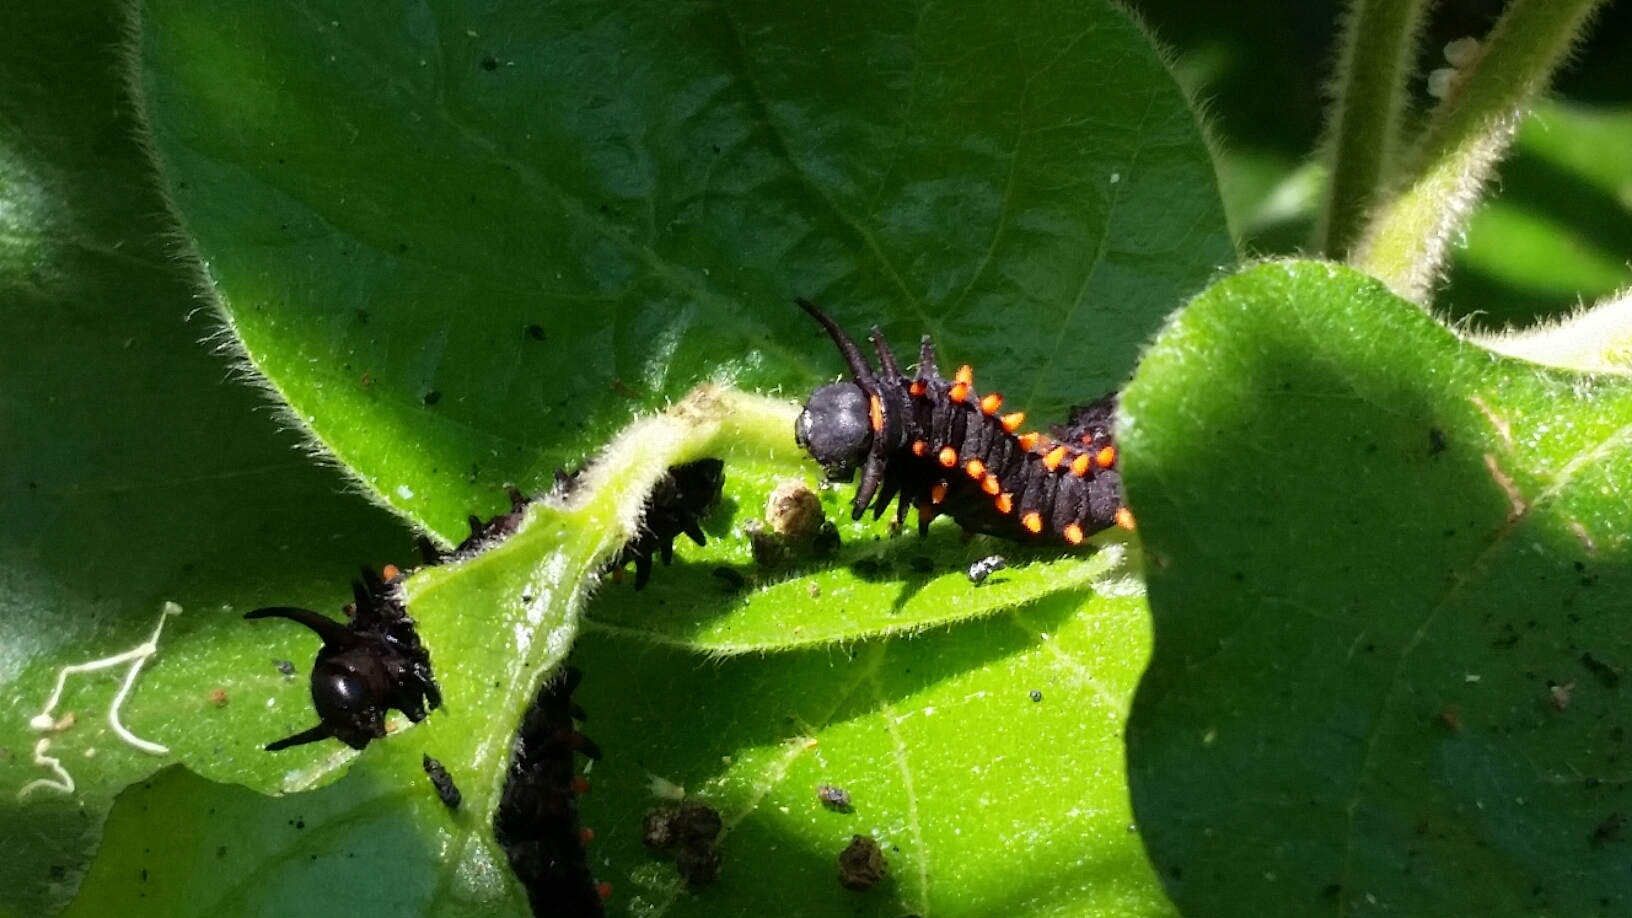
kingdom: Animalia
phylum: Arthropoda
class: Insecta
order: Lepidoptera
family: Papilionidae
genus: Battus
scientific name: Battus philenor
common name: Pipevine swallowtail
